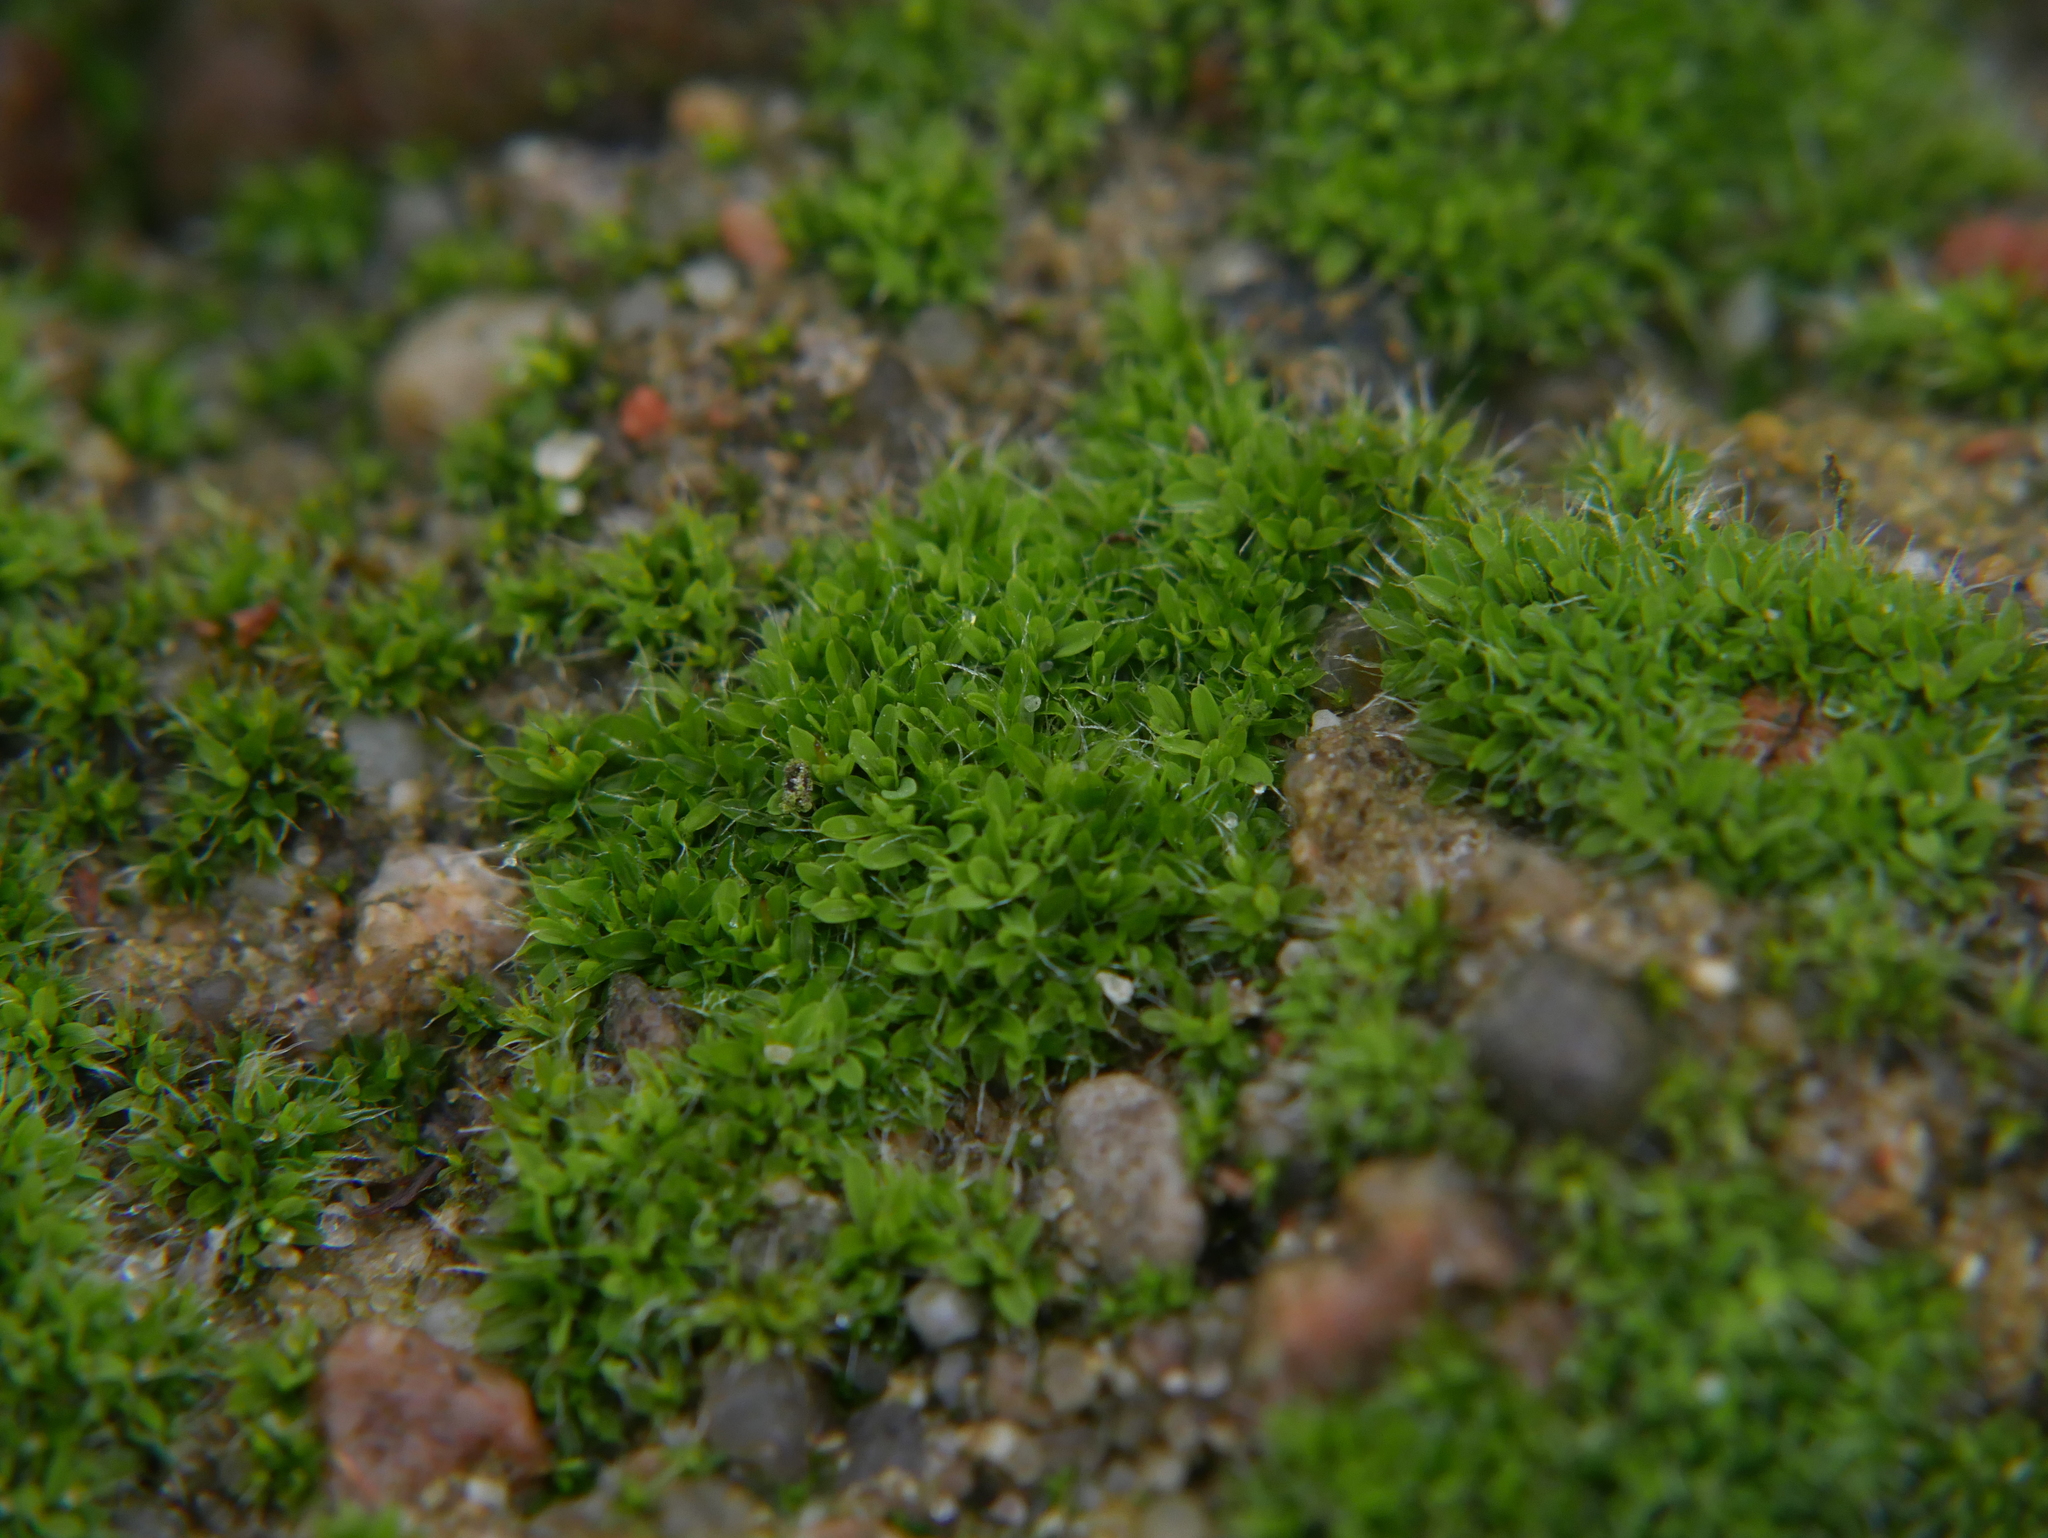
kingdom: Plantae
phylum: Bryophyta
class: Bryopsida
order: Pottiales
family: Pottiaceae
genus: Tortula
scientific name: Tortula muralis
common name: Wall screw-moss
